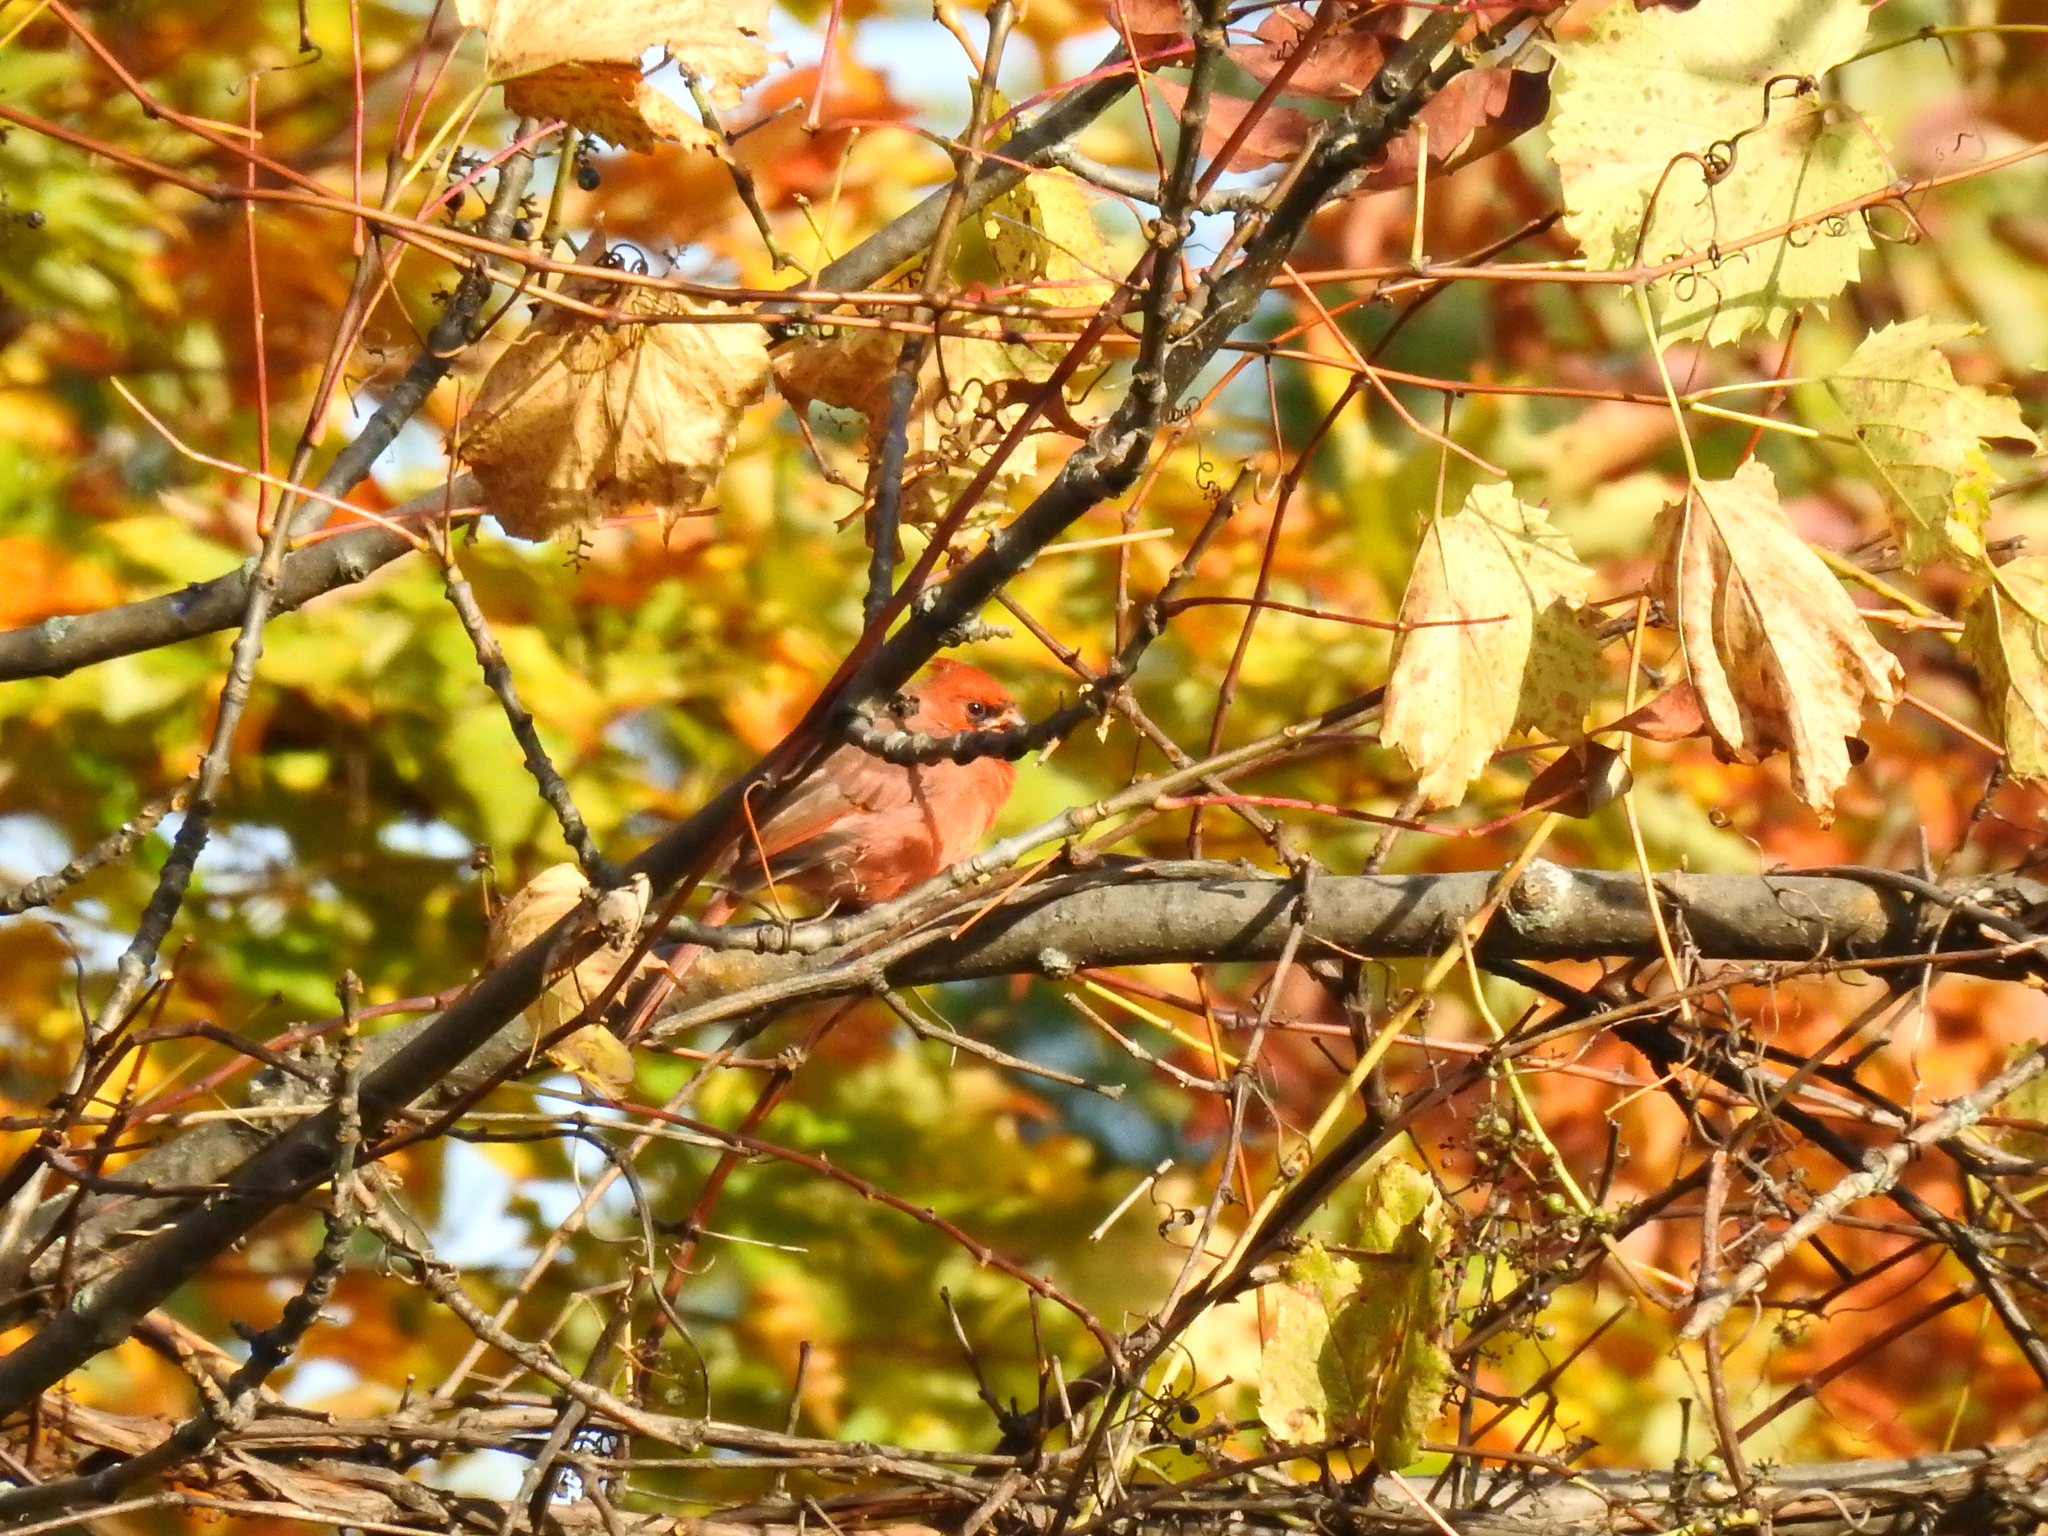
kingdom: Animalia
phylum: Chordata
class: Aves
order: Passeriformes
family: Cardinalidae
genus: Cardinalis
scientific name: Cardinalis cardinalis
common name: Northern cardinal
